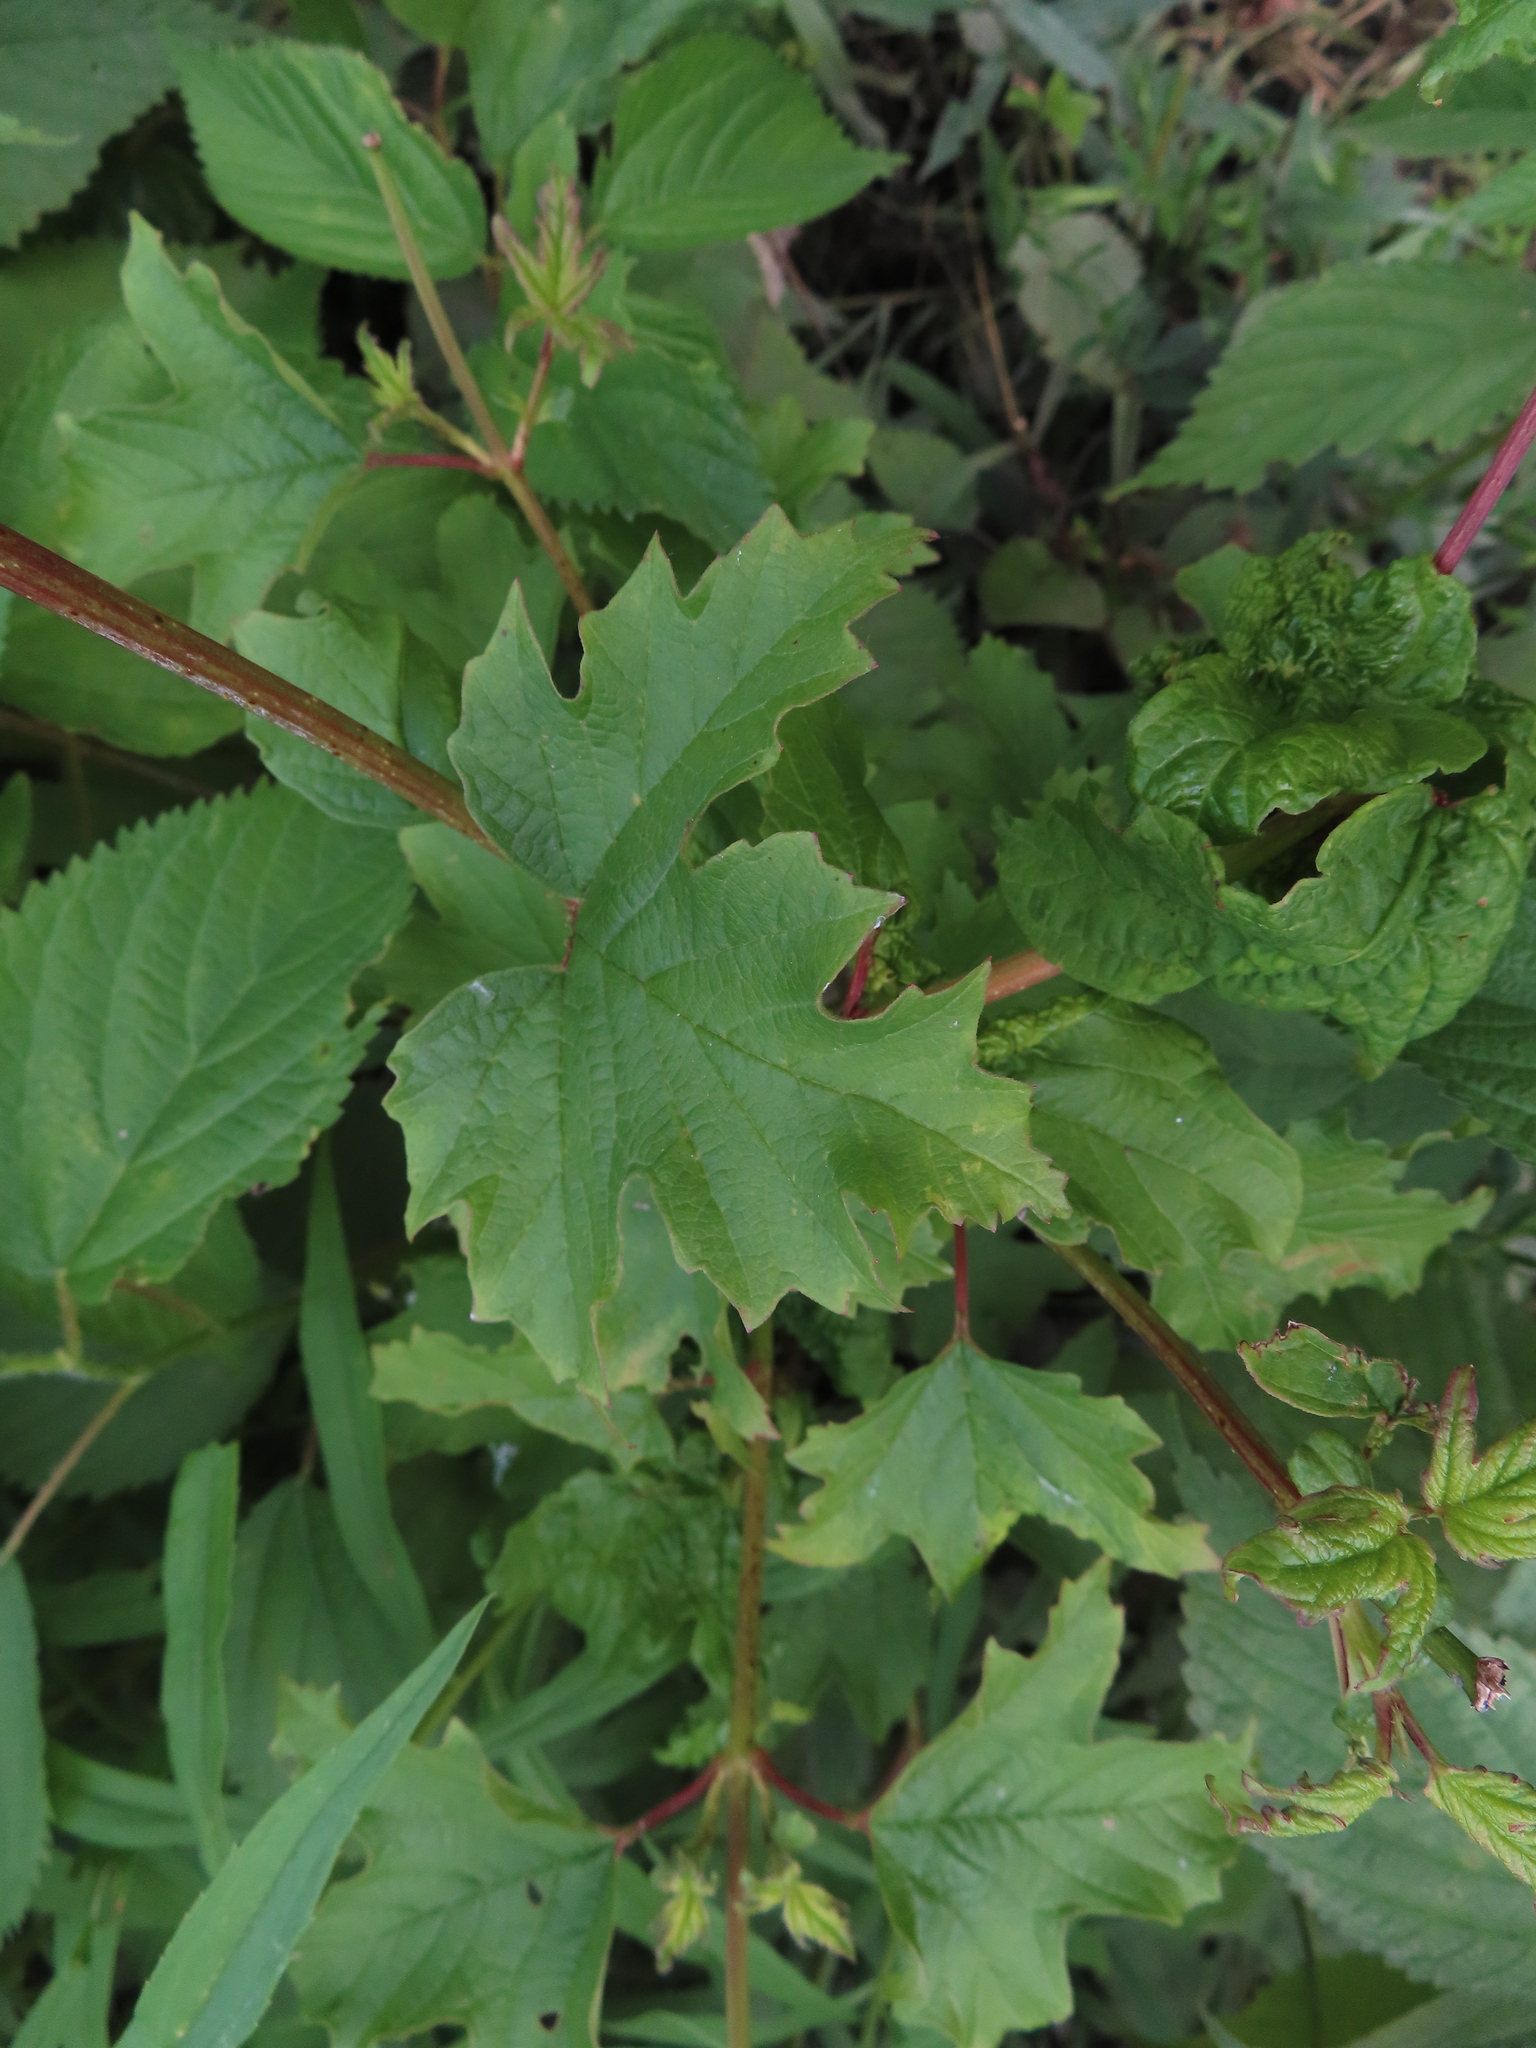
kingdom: Plantae
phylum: Tracheophyta
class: Magnoliopsida
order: Dipsacales
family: Viburnaceae
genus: Viburnum
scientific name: Viburnum opulus
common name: Guelder-rose
